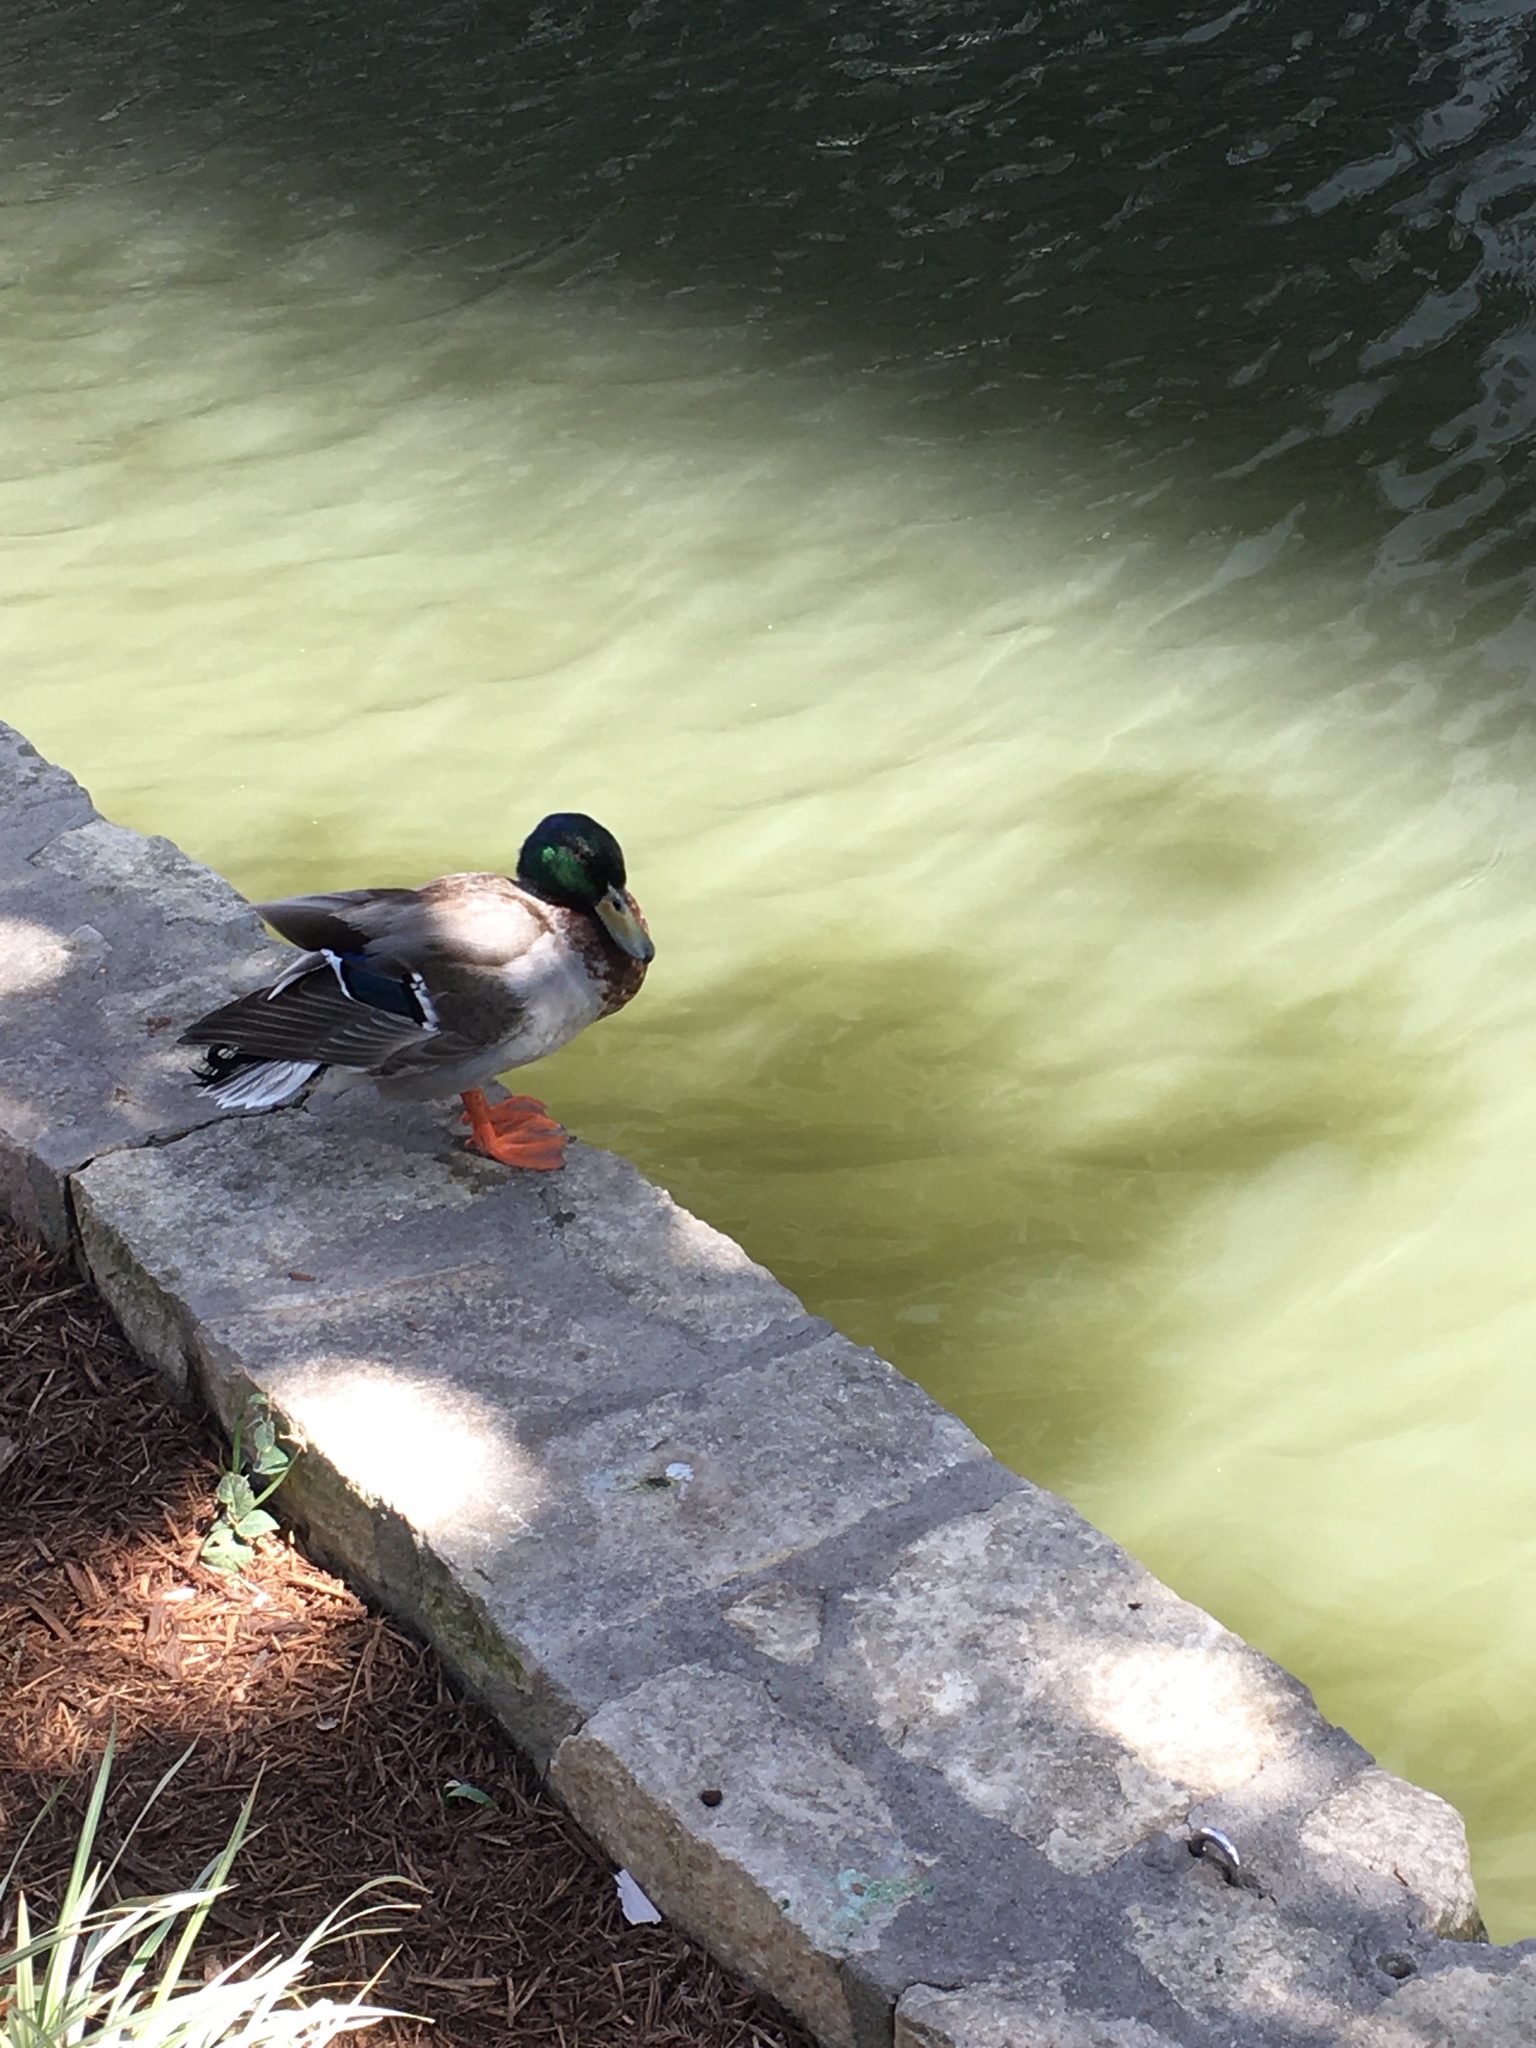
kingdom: Animalia
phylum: Chordata
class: Aves
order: Anseriformes
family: Anatidae
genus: Anas
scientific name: Anas platyrhynchos
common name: Mallard
